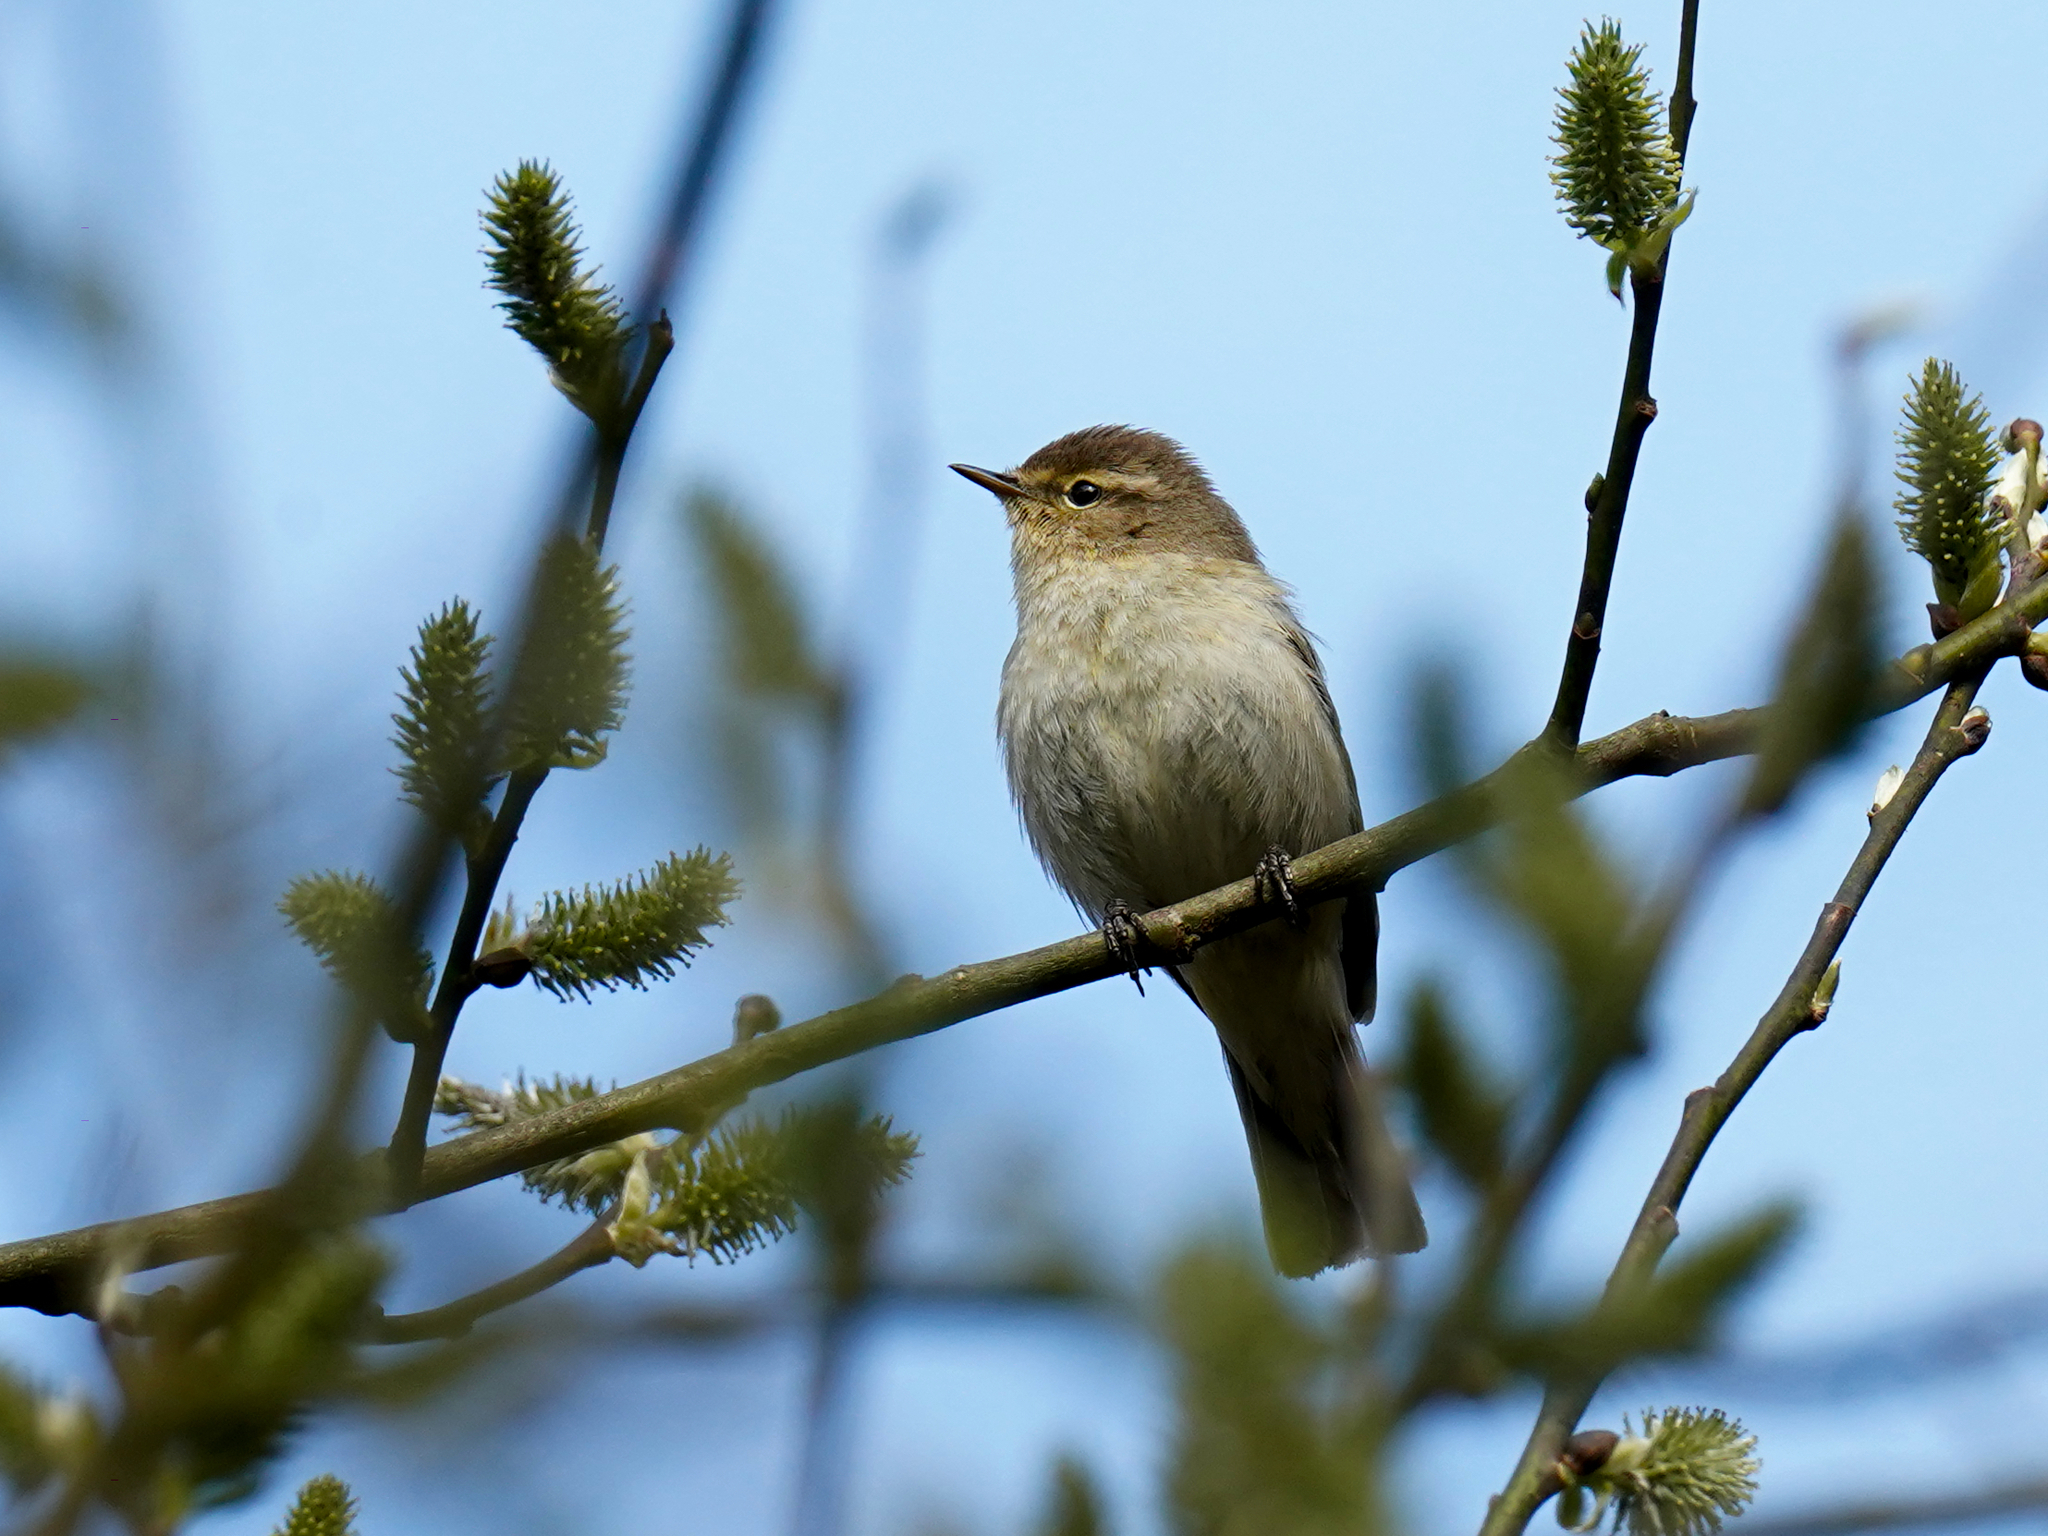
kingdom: Animalia
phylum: Chordata
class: Aves
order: Passeriformes
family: Phylloscopidae
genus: Phylloscopus
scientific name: Phylloscopus collybita
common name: Common chiffchaff
